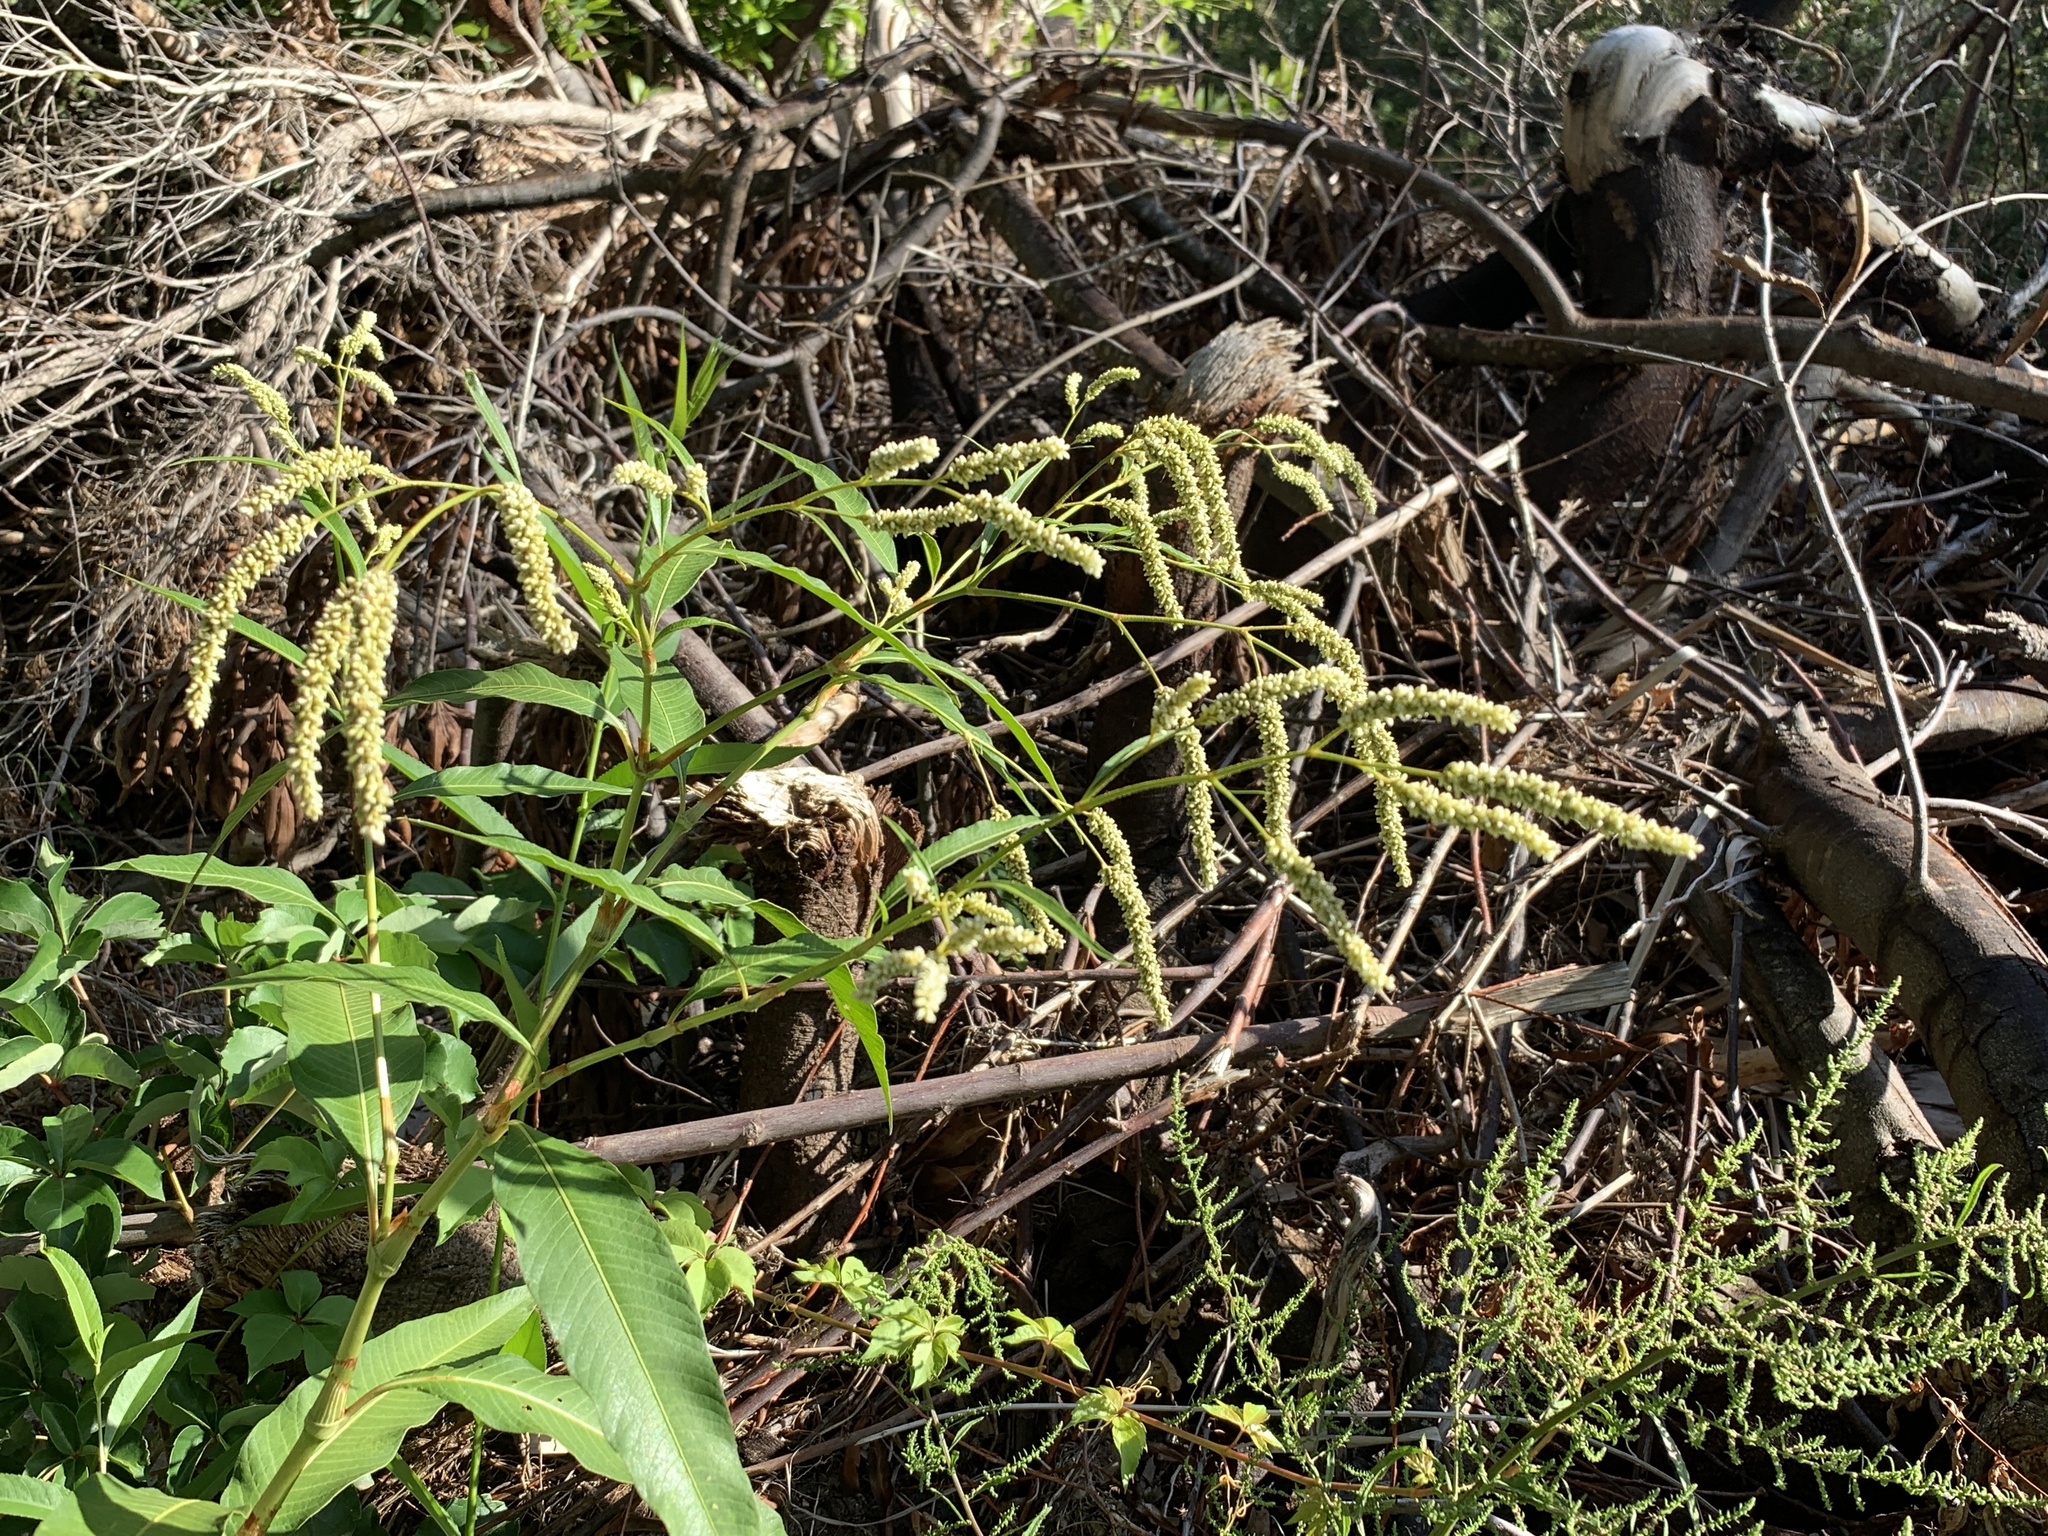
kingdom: Plantae
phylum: Tracheophyta
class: Magnoliopsida
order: Caryophyllales
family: Polygonaceae
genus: Persicaria
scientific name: Persicaria lapathifolia
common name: Curlytop knotweed
